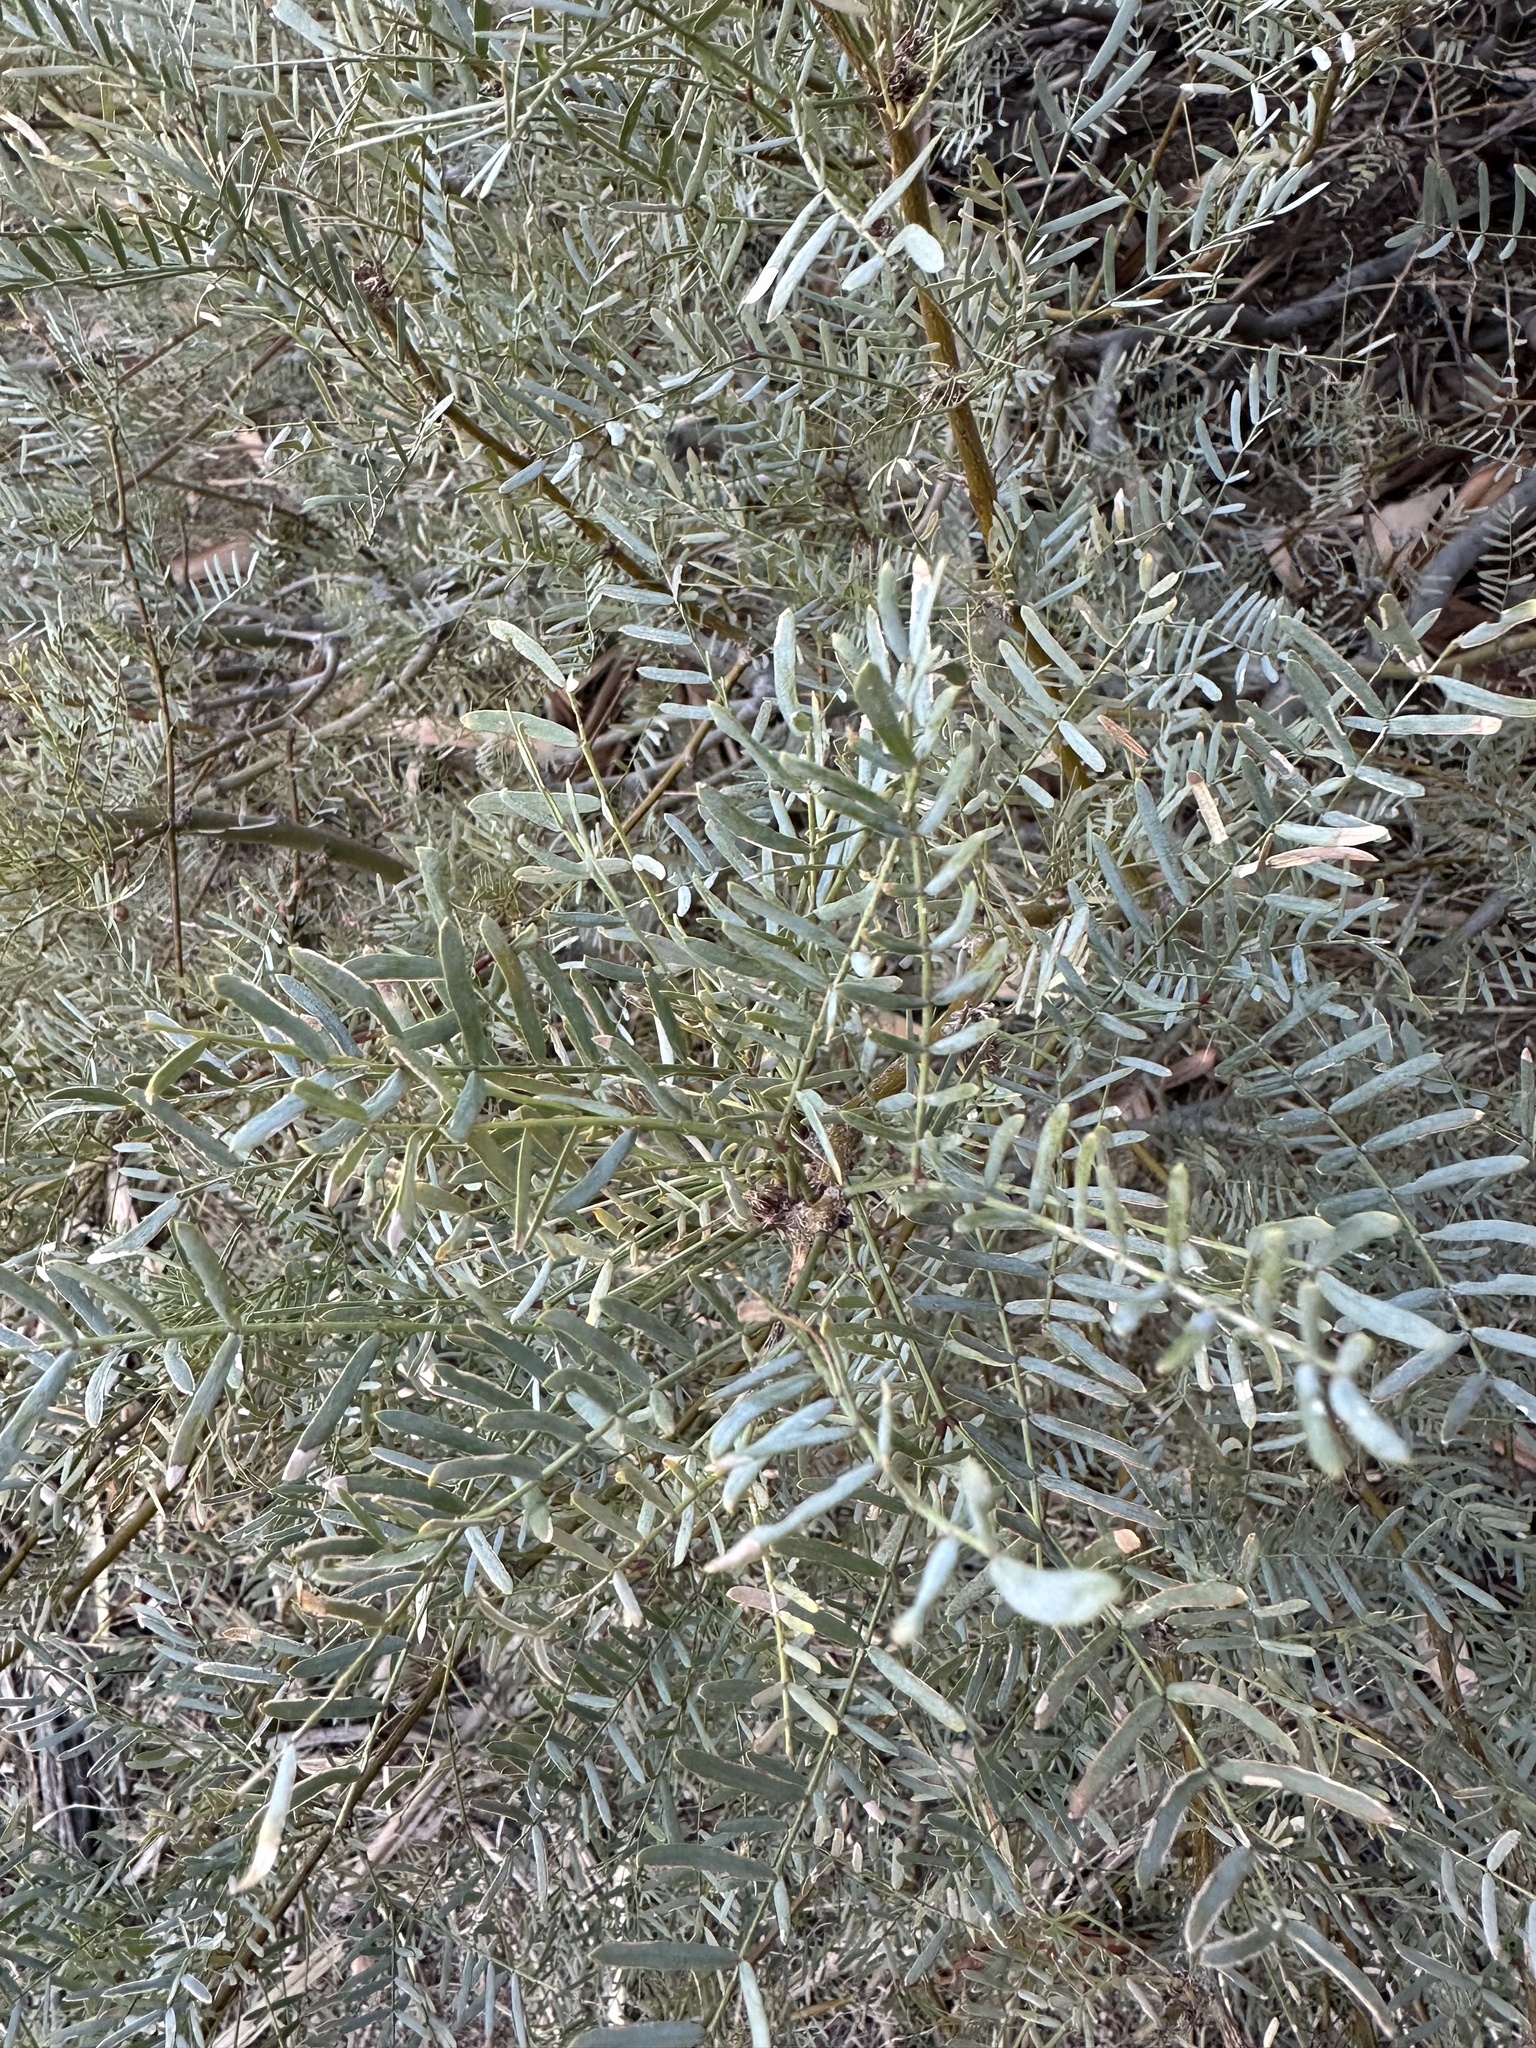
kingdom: Plantae
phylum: Tracheophyta
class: Magnoliopsida
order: Fabales
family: Fabaceae
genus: Prosopis
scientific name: Prosopis pubescens
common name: Screw-bean
